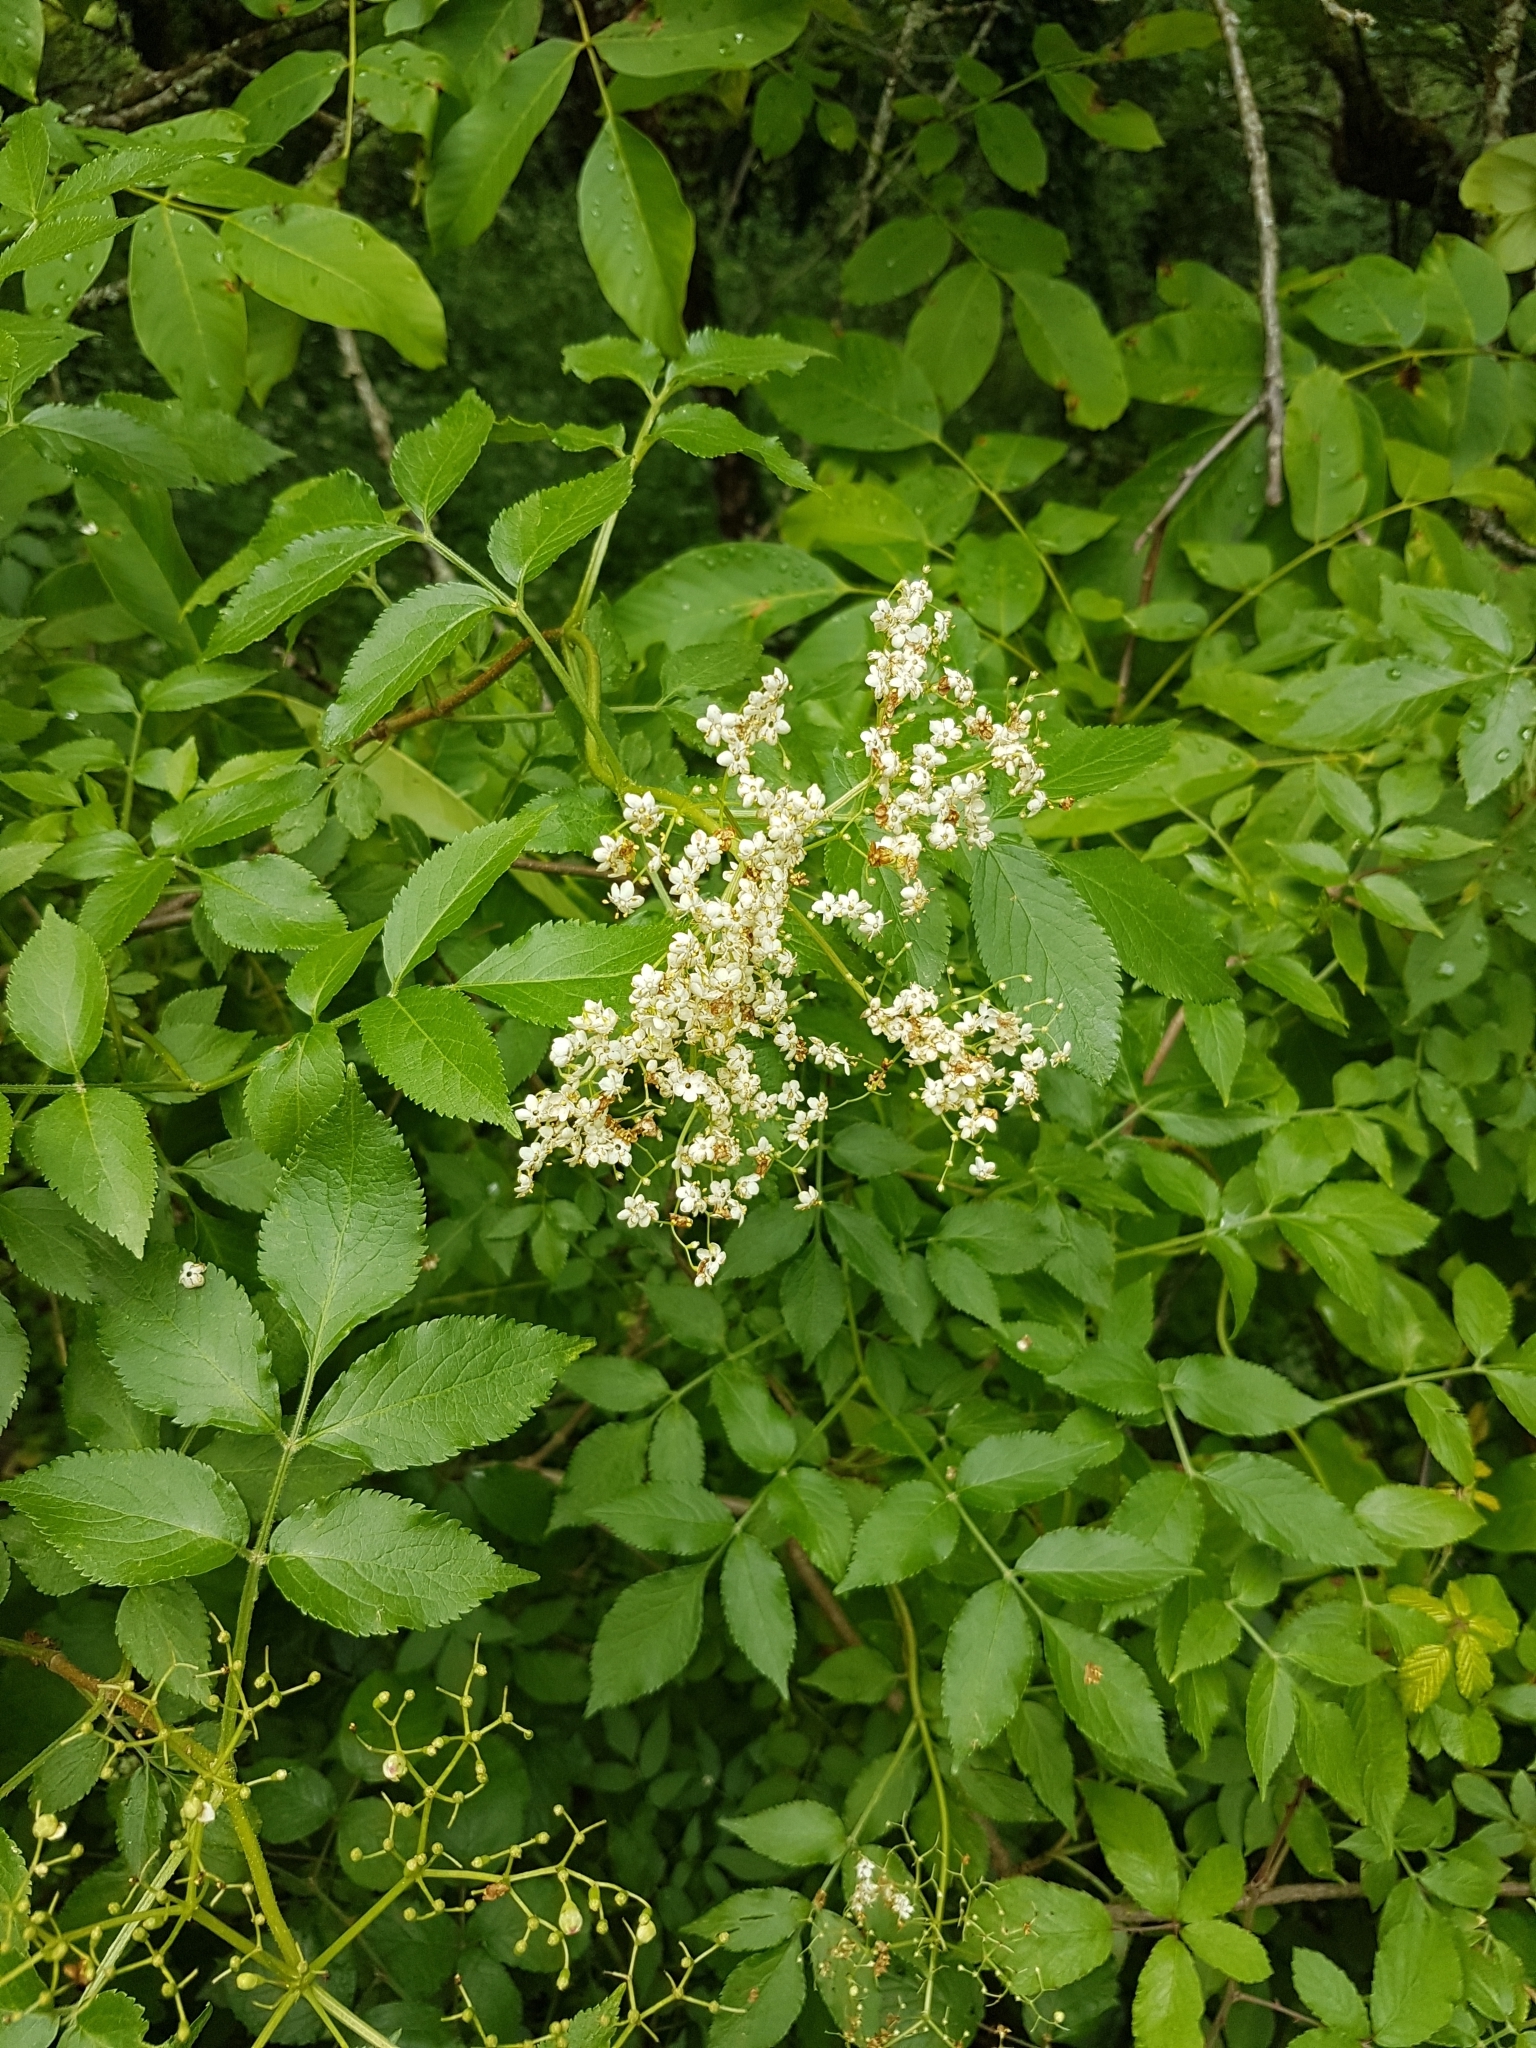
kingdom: Plantae
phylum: Tracheophyta
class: Magnoliopsida
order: Dipsacales
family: Viburnaceae
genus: Sambucus
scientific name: Sambucus nigra
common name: Elder
